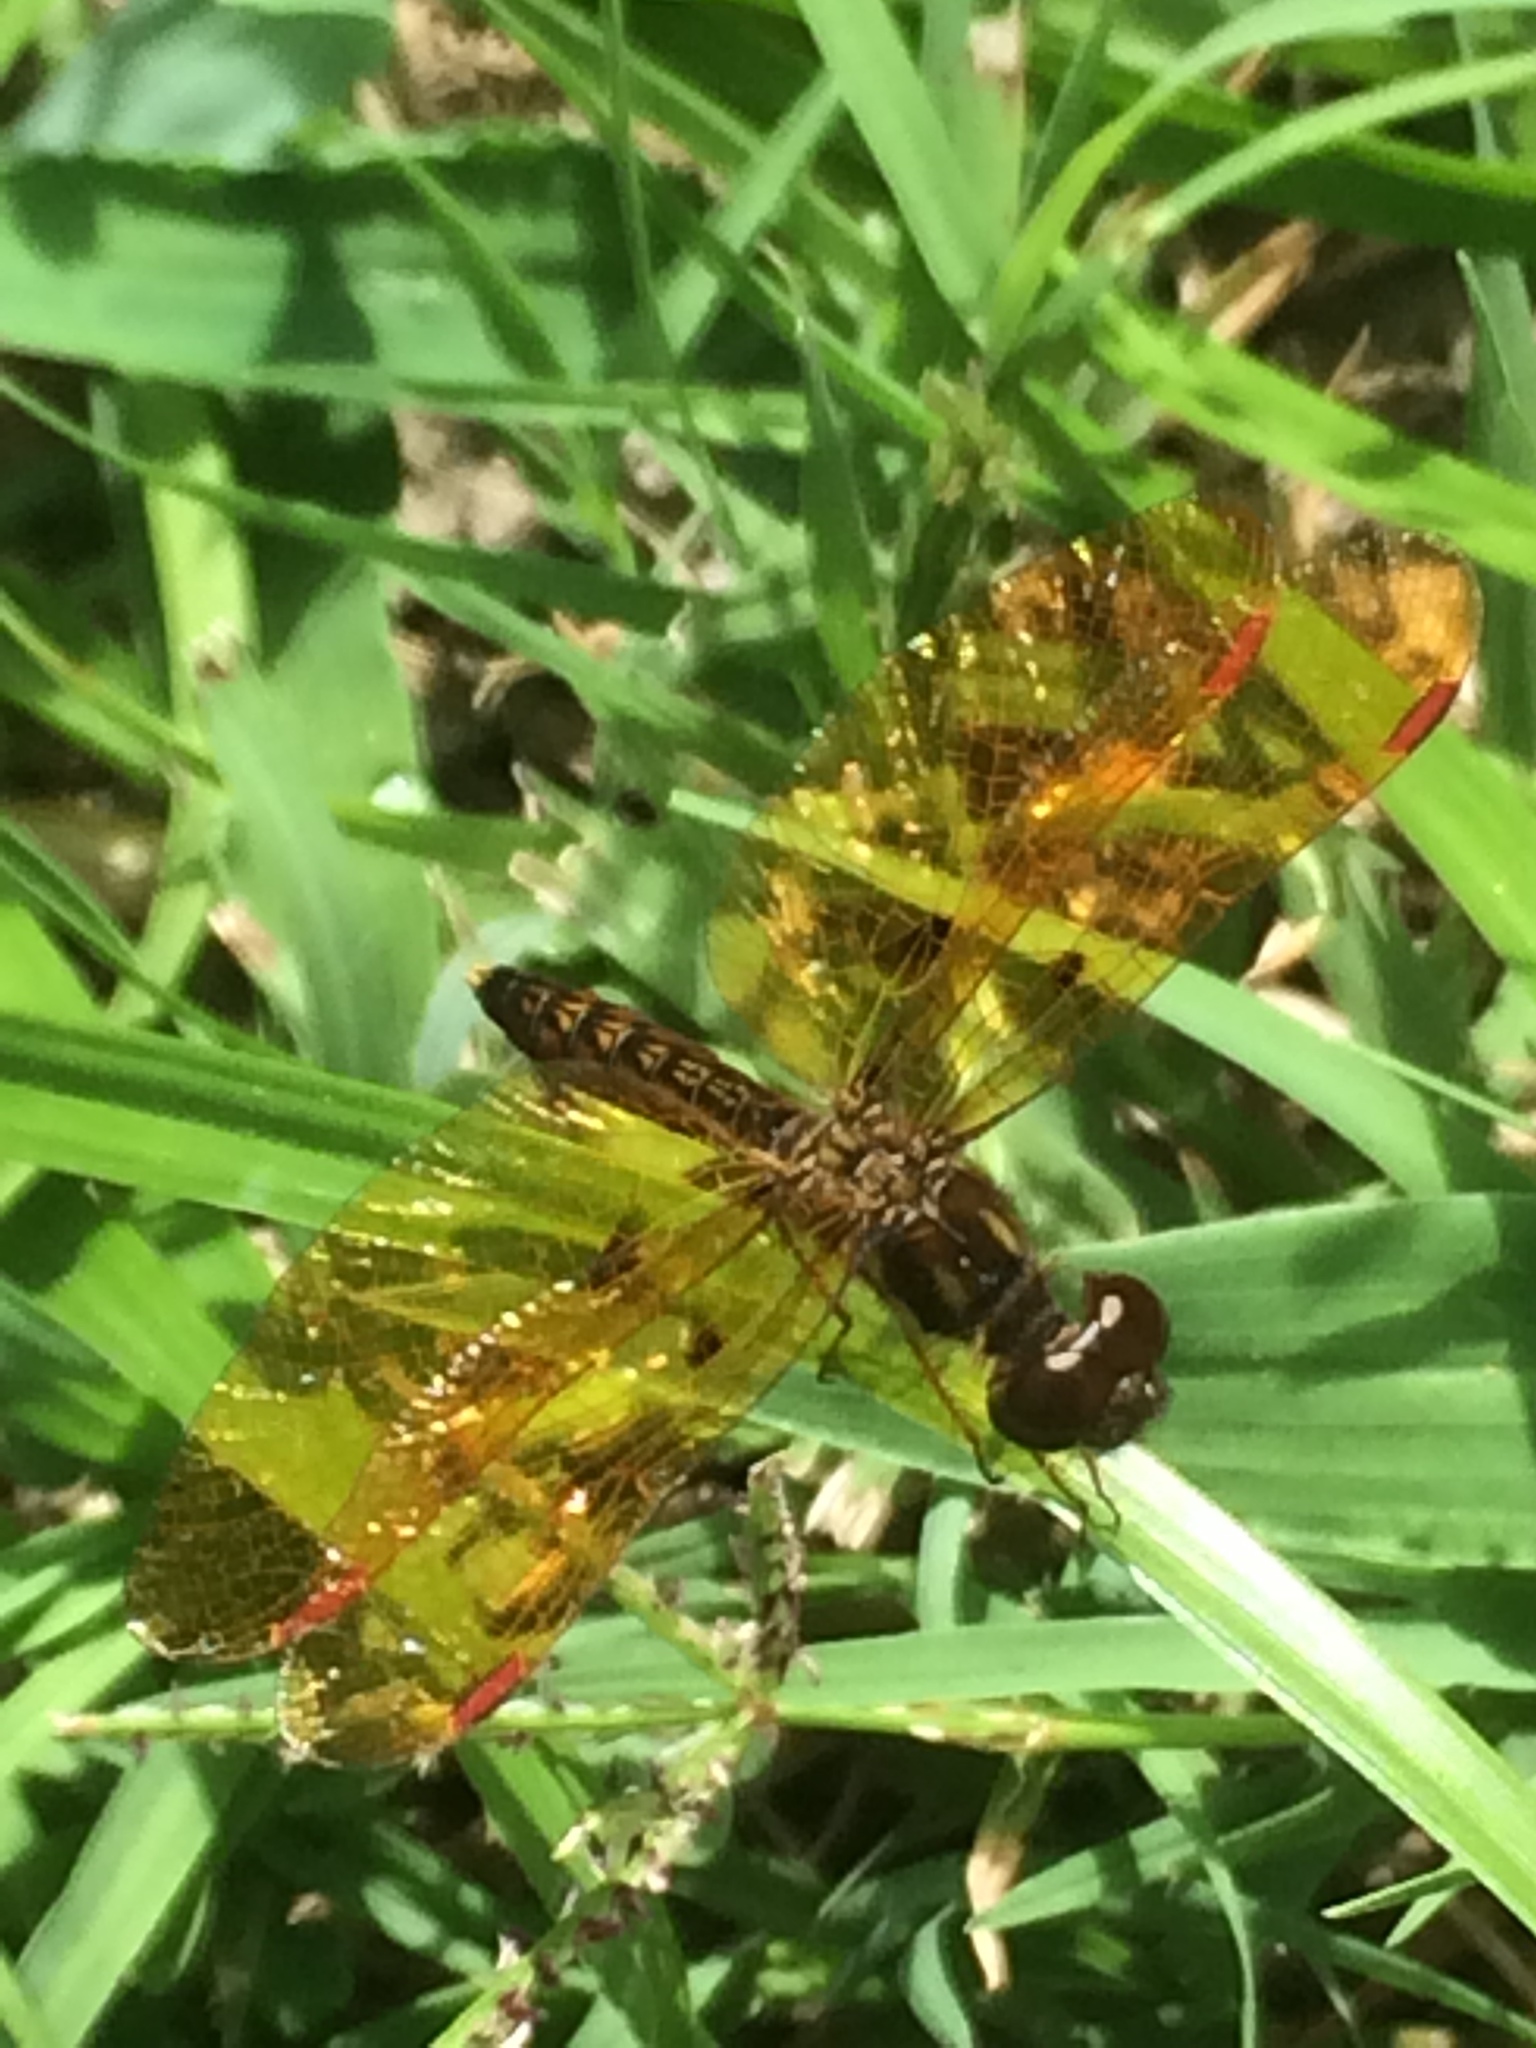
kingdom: Animalia
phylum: Arthropoda
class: Insecta
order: Odonata
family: Libellulidae
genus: Perithemis
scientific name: Perithemis tenera
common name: Eastern amberwing
